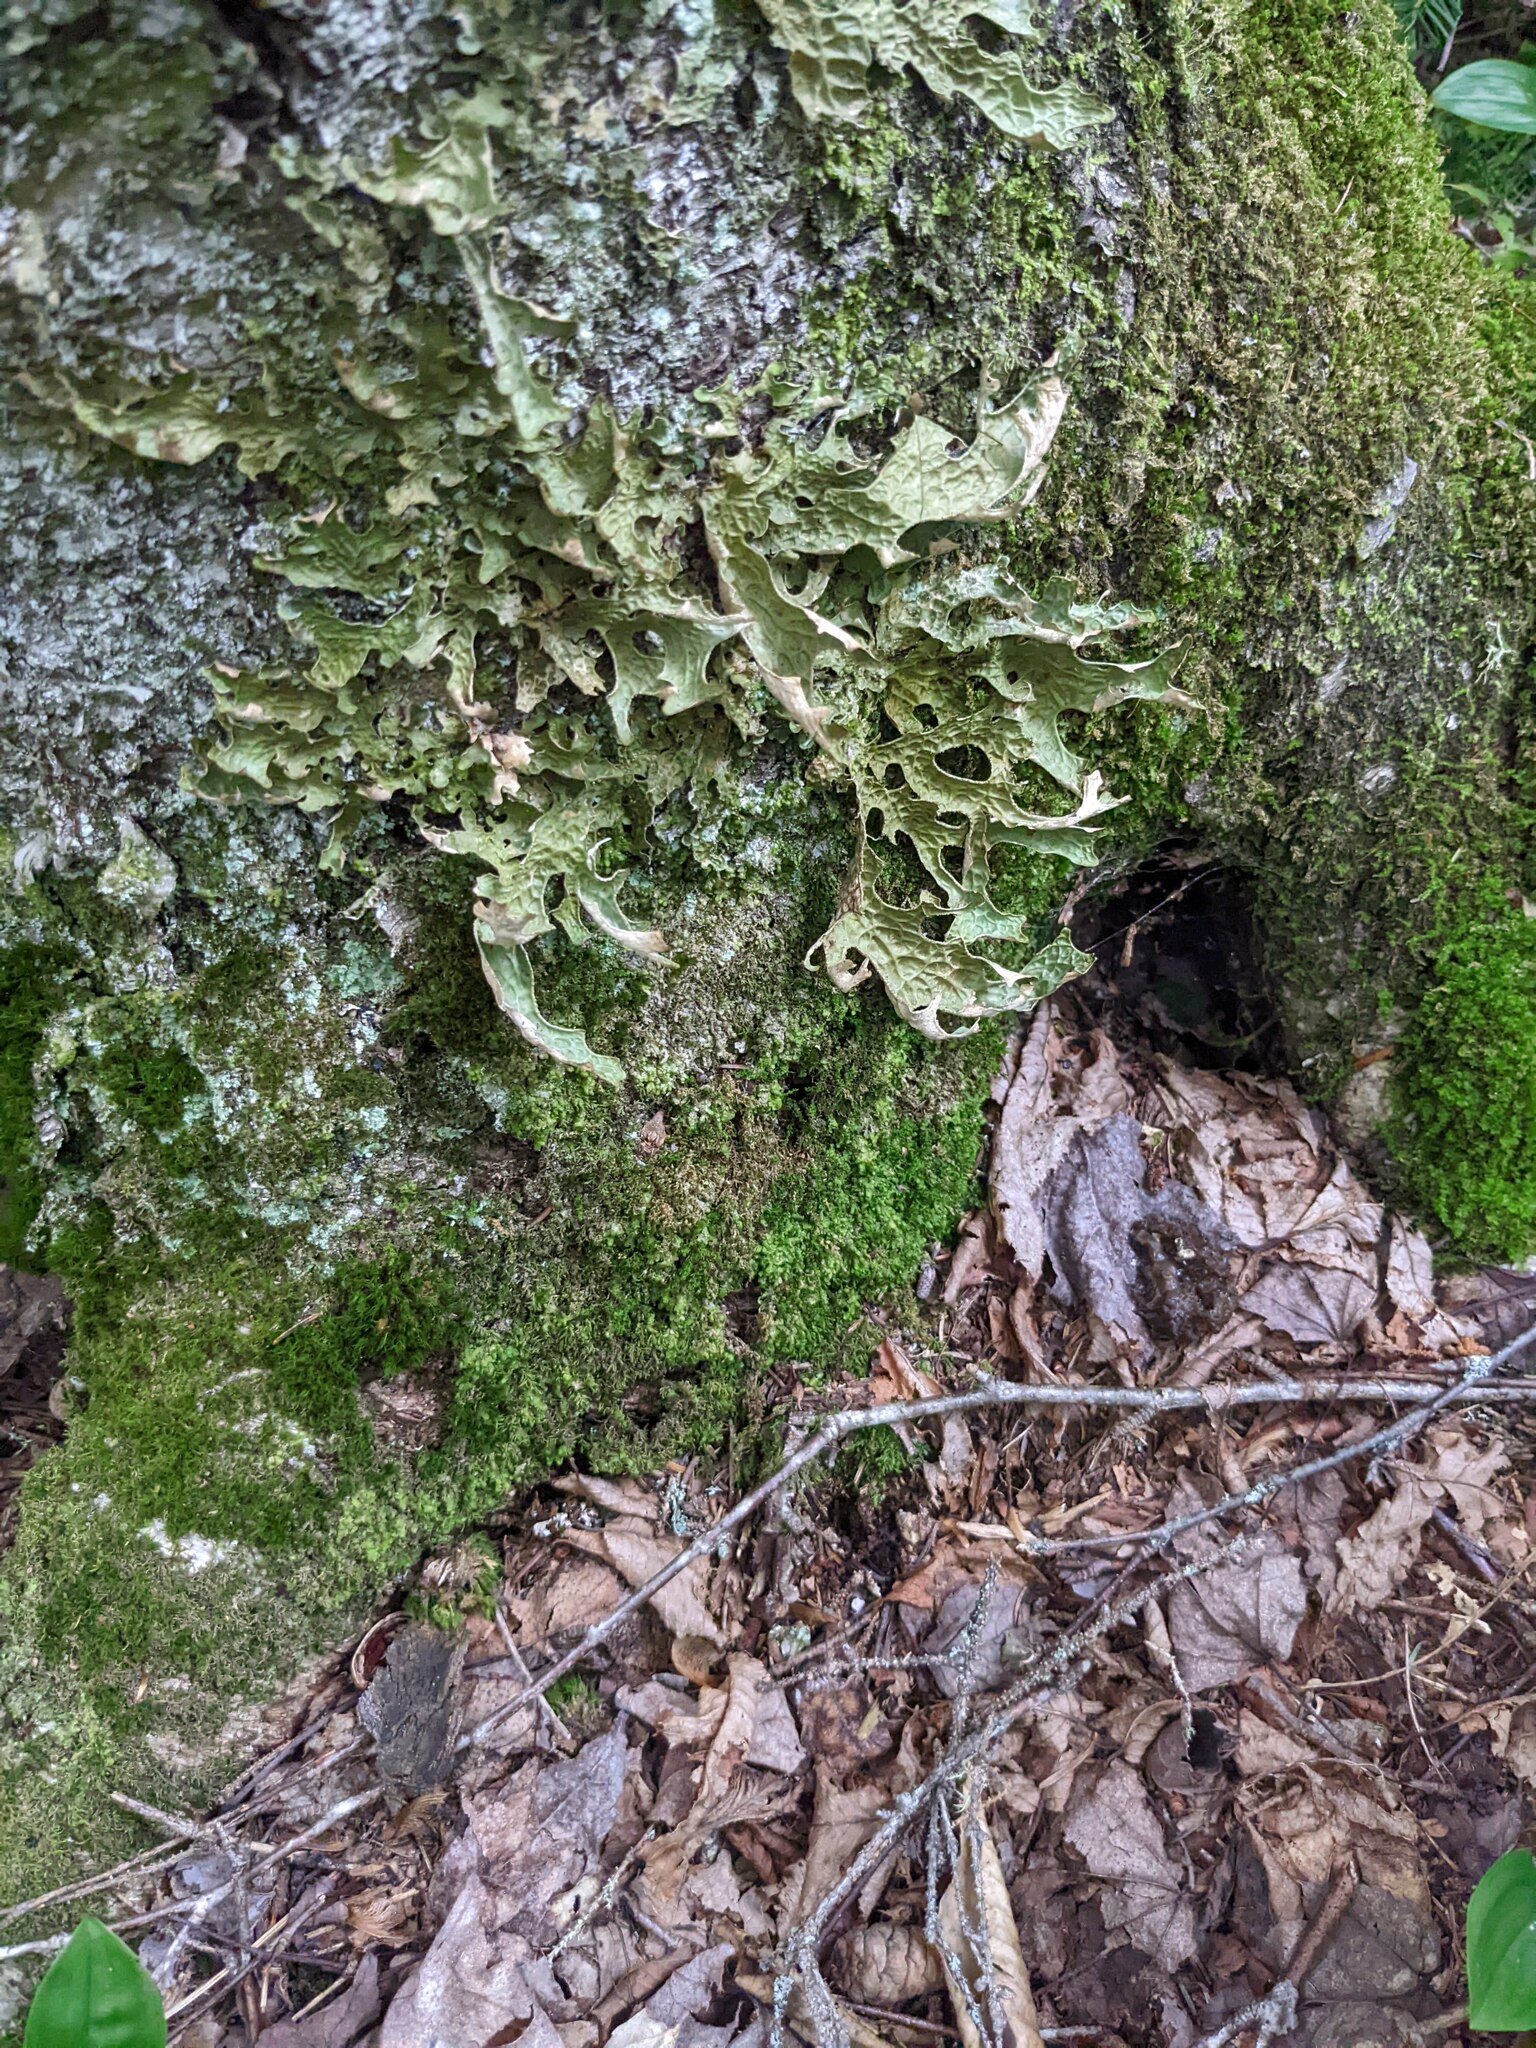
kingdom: Fungi
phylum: Ascomycota
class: Lecanoromycetes
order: Peltigerales
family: Lobariaceae
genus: Lobaria
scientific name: Lobaria pulmonaria
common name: Lungwort
